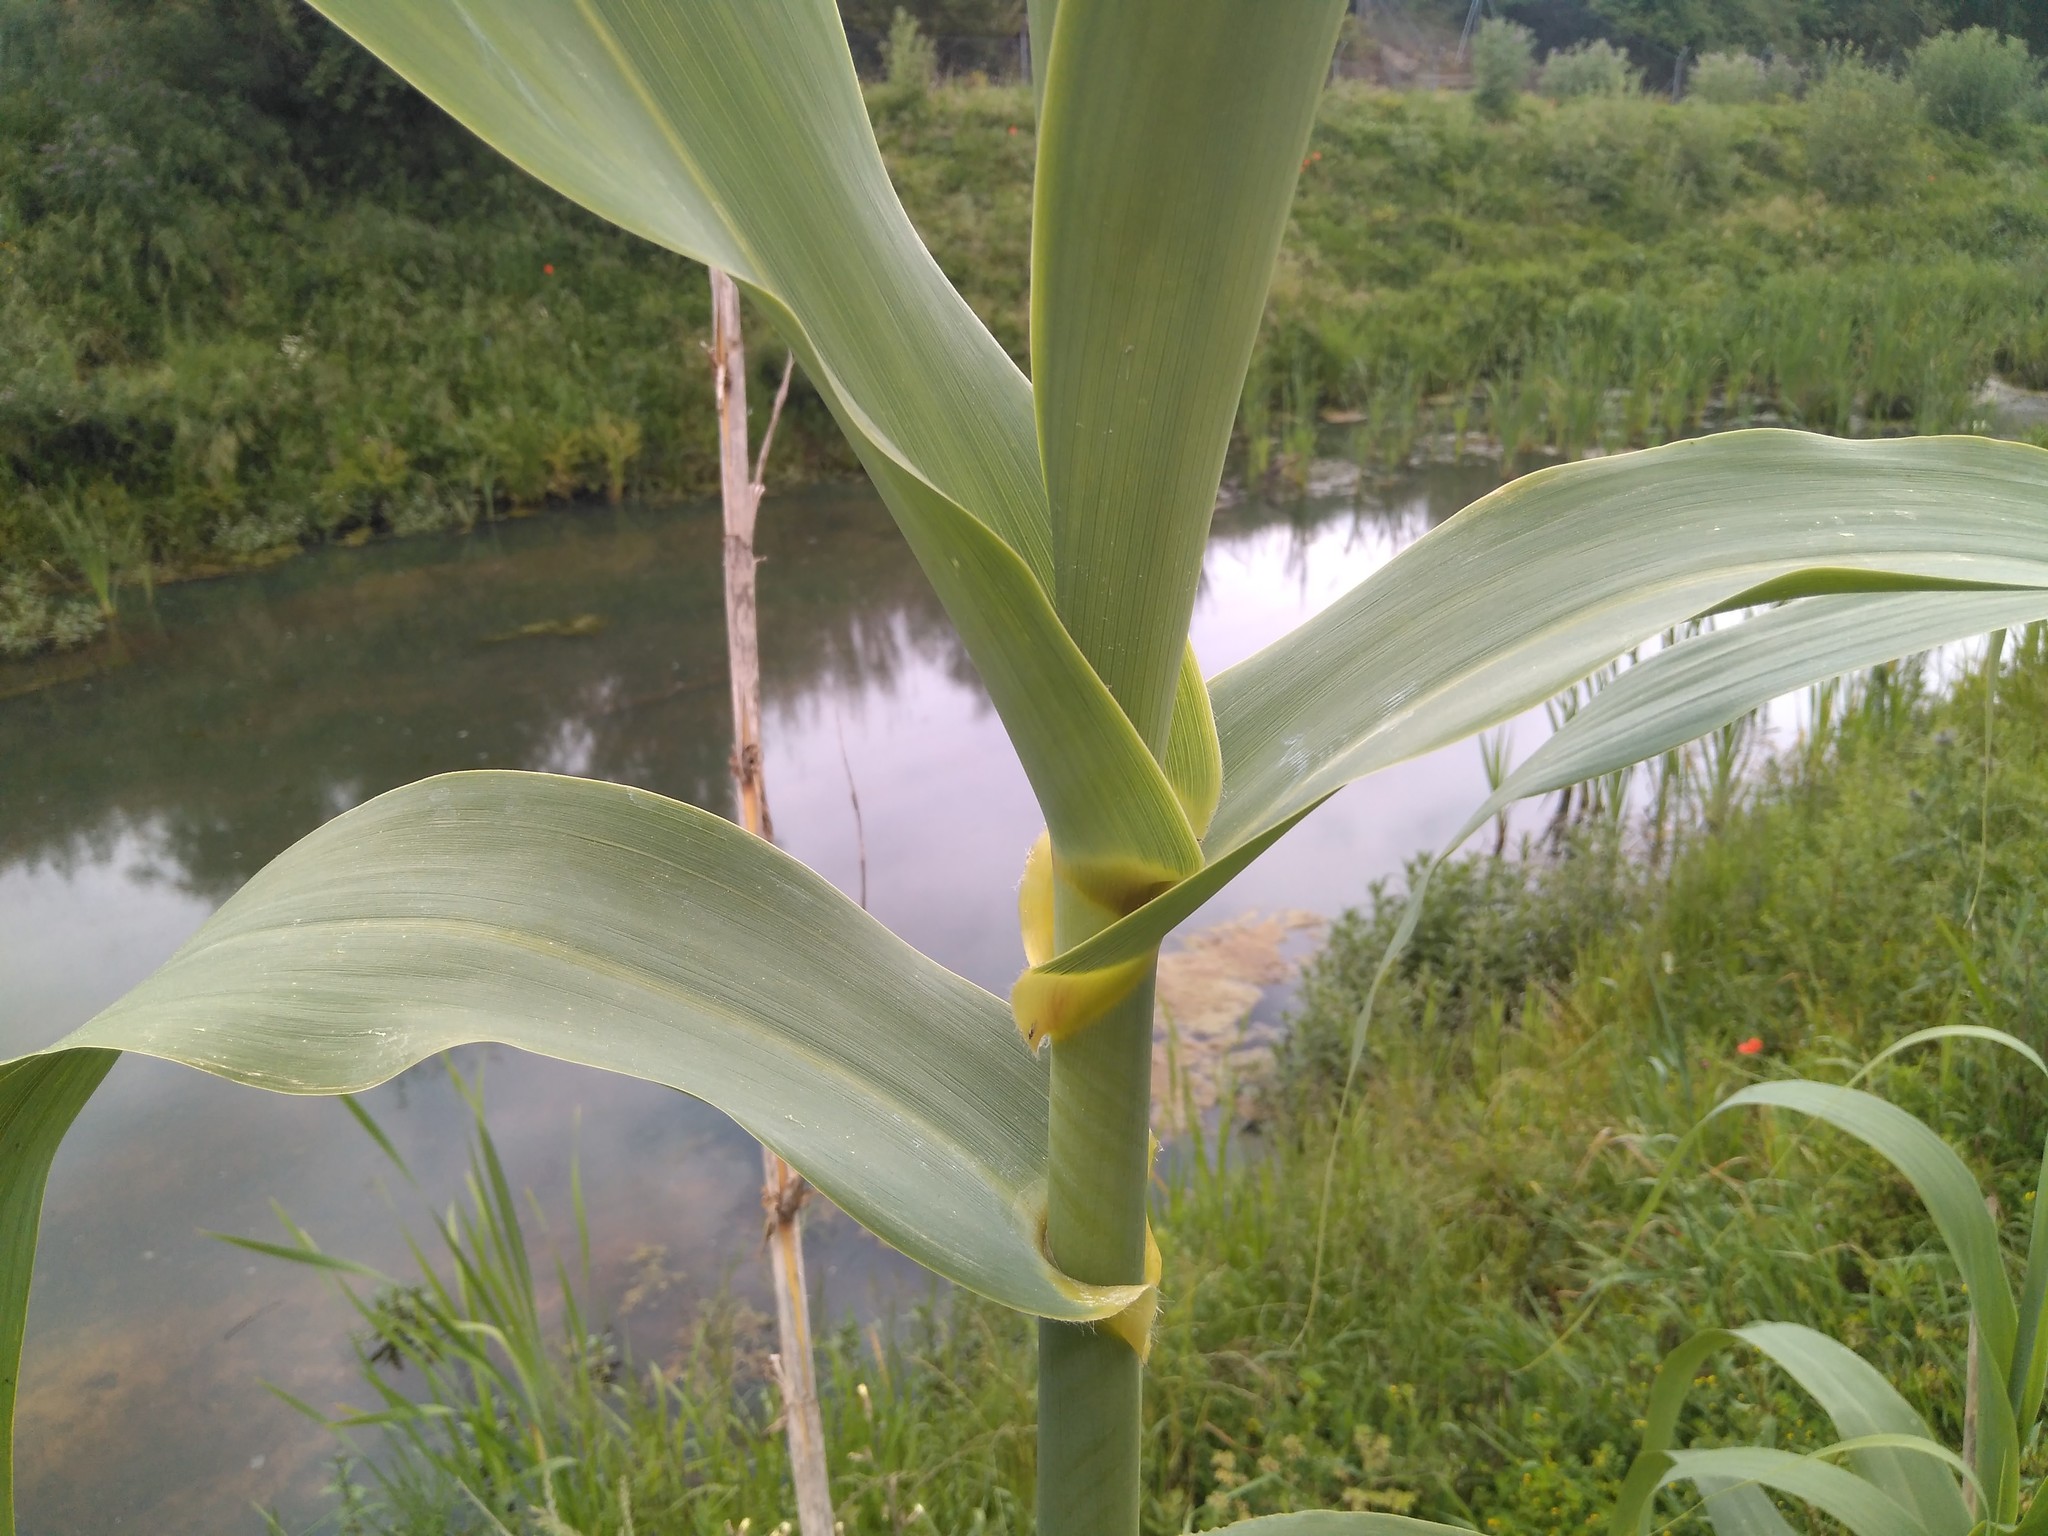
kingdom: Plantae
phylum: Tracheophyta
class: Liliopsida
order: Poales
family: Poaceae
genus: Arundo
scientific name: Arundo donax
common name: Giant reed
